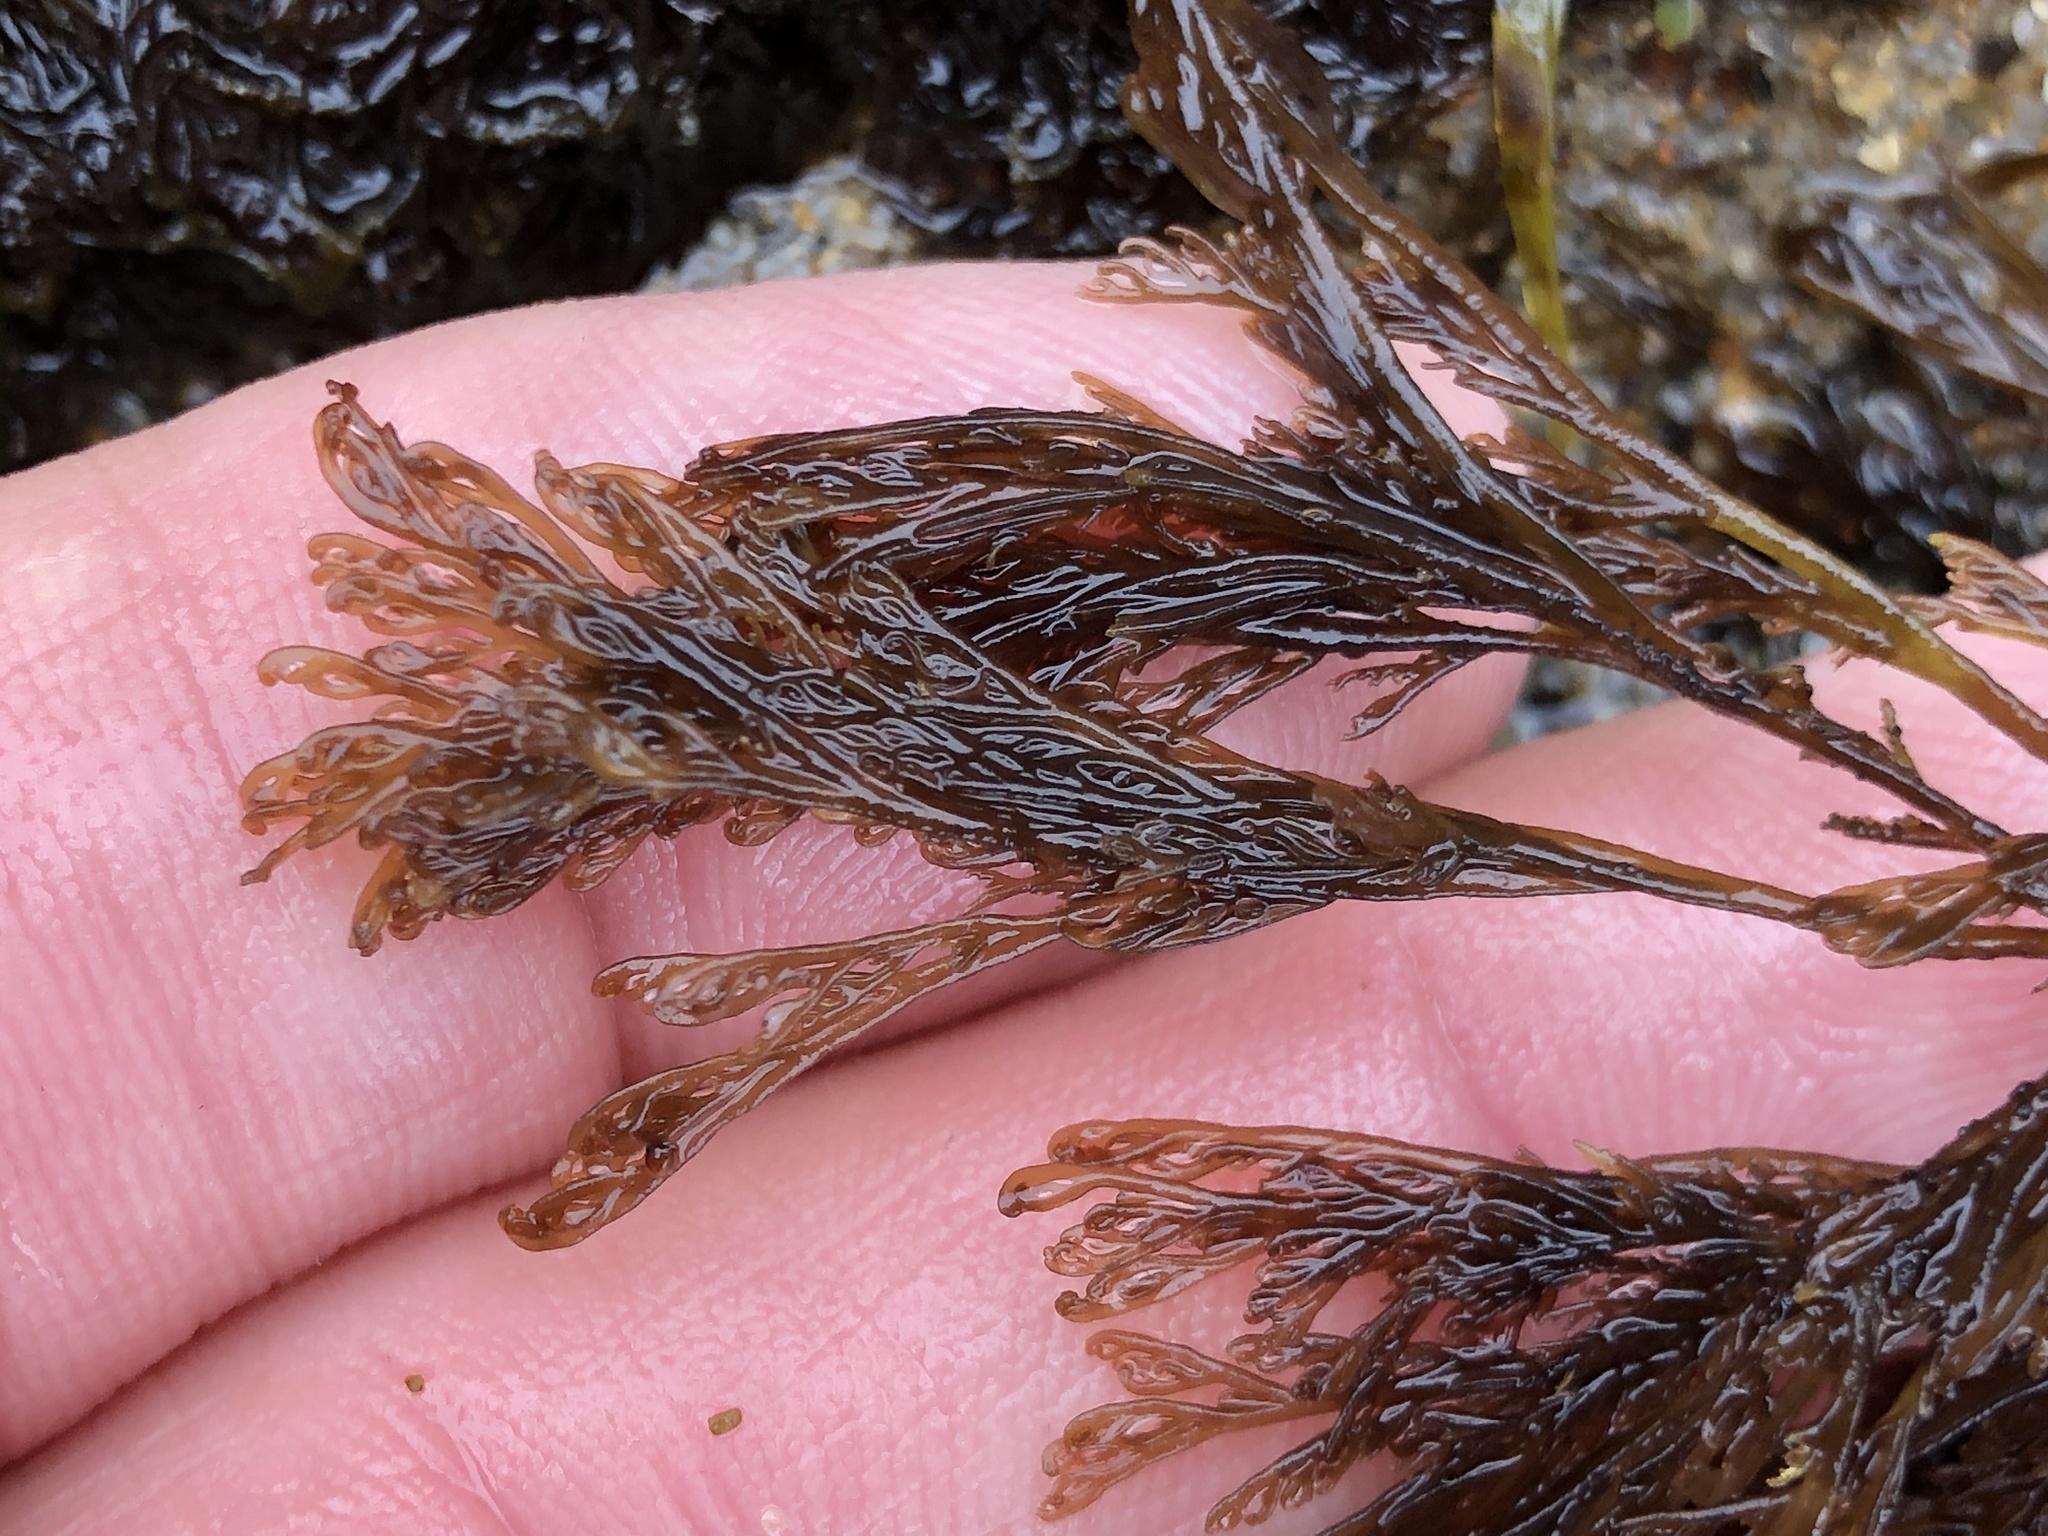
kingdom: Plantae
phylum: Rhodophyta
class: Florideophyceae
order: Ceramiales
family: Ceramiaceae
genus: Microcladia
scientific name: Microcladia borealis
